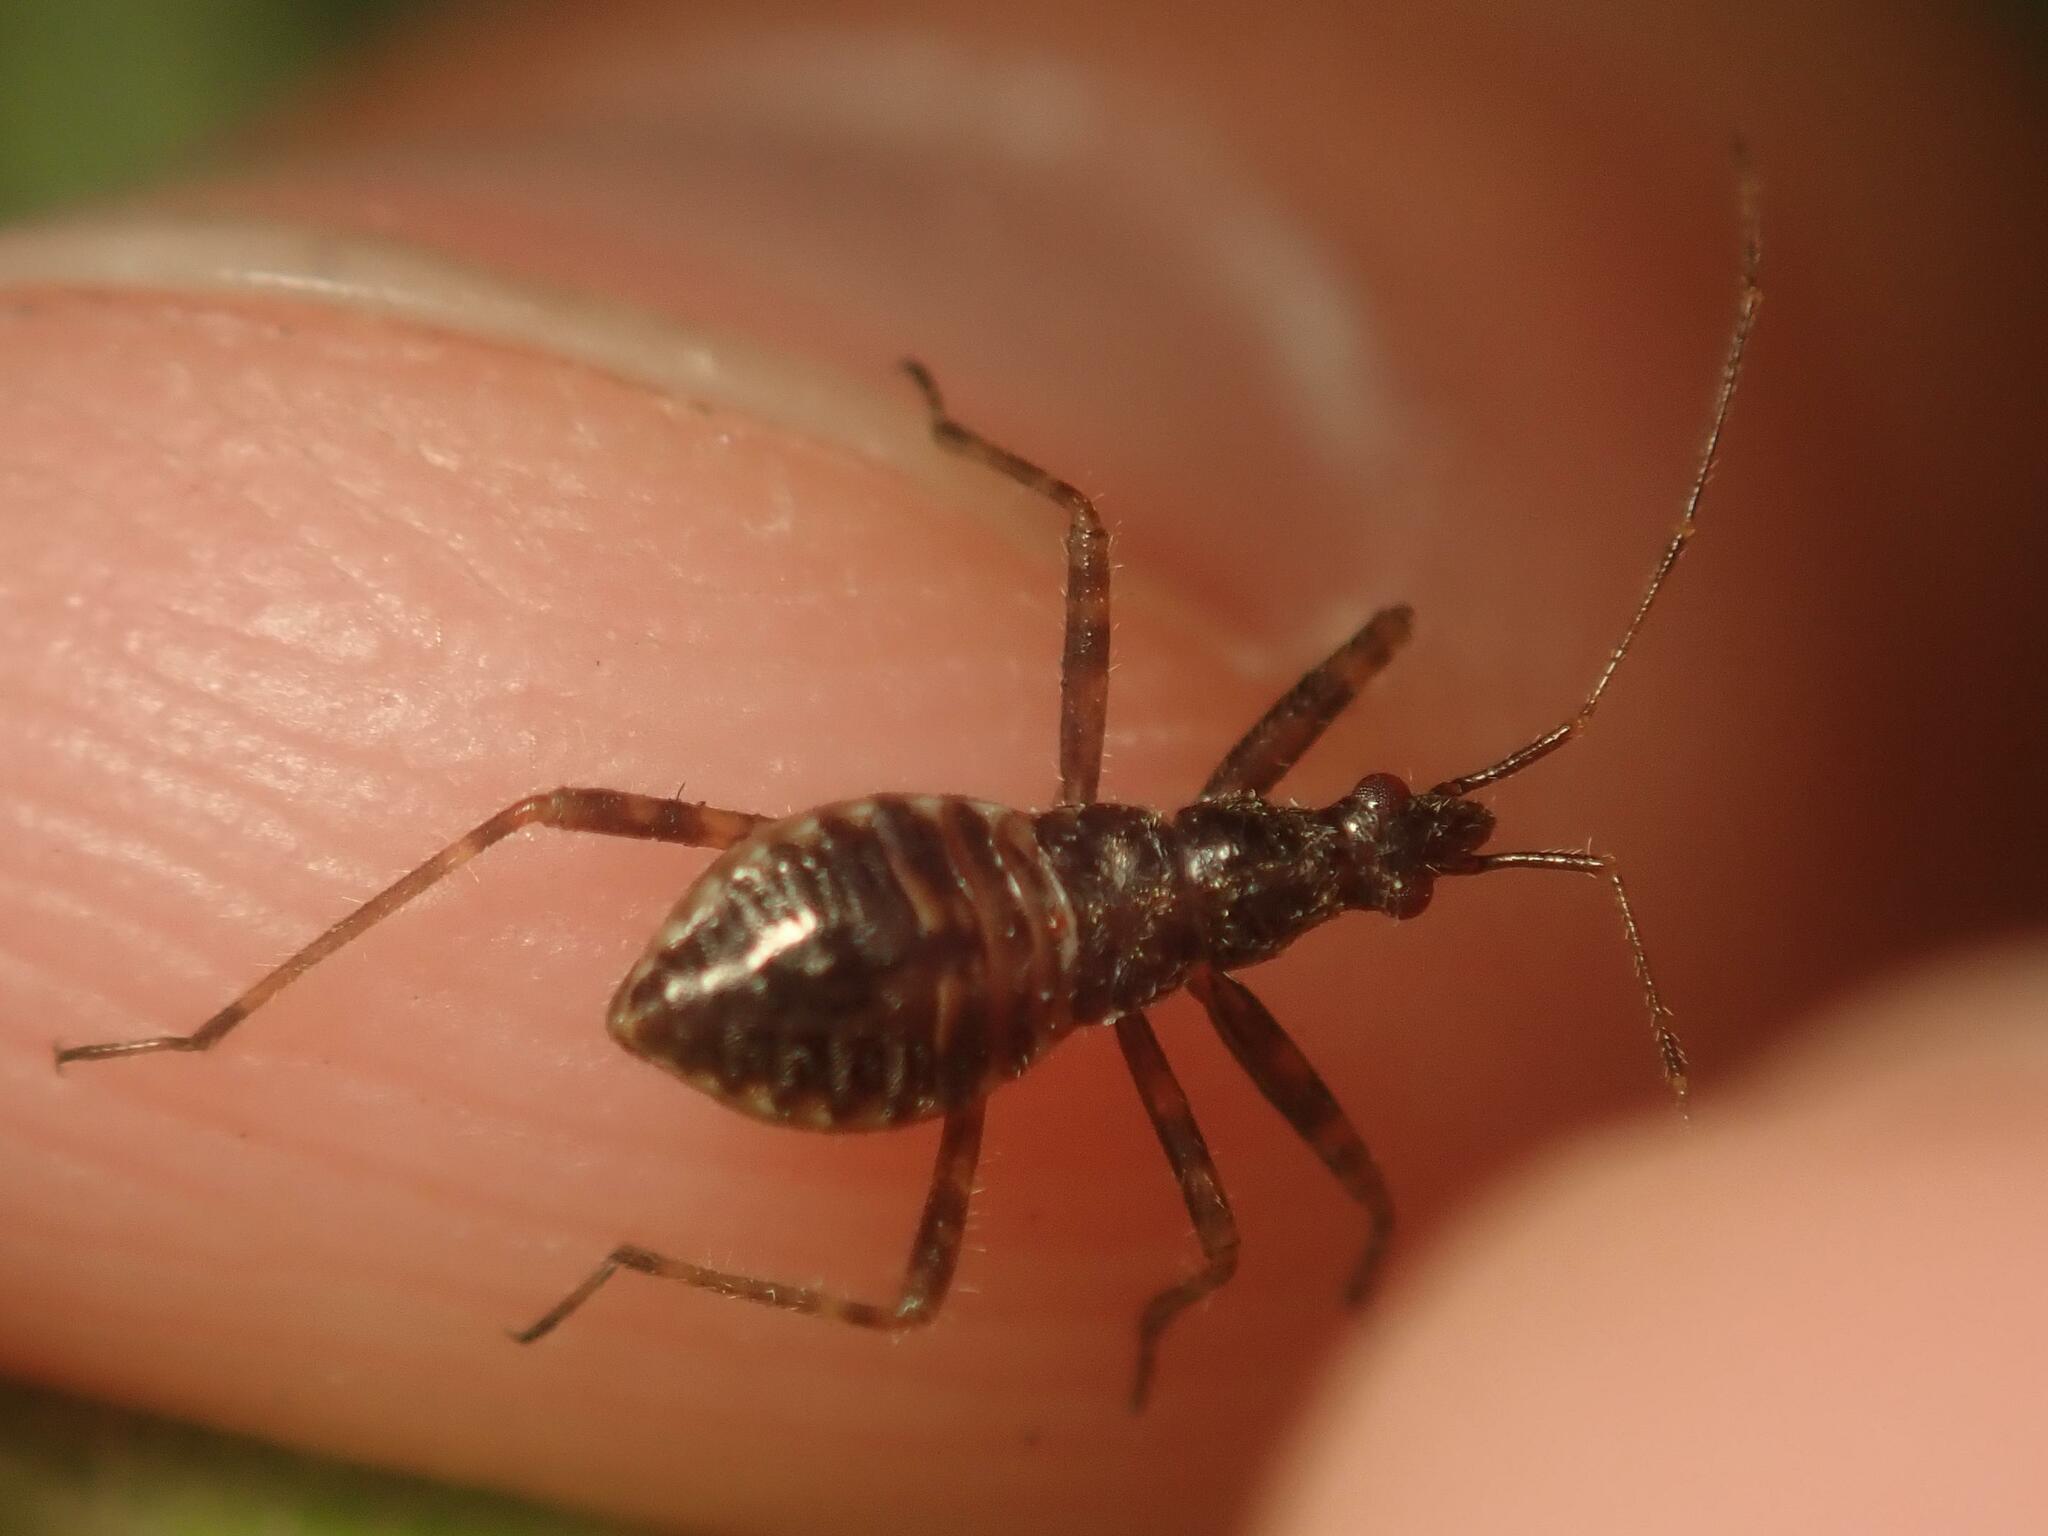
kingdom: Animalia
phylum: Arthropoda
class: Insecta
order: Hemiptera
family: Nabidae
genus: Himacerus
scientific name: Himacerus apterus
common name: Tree damsel bug
